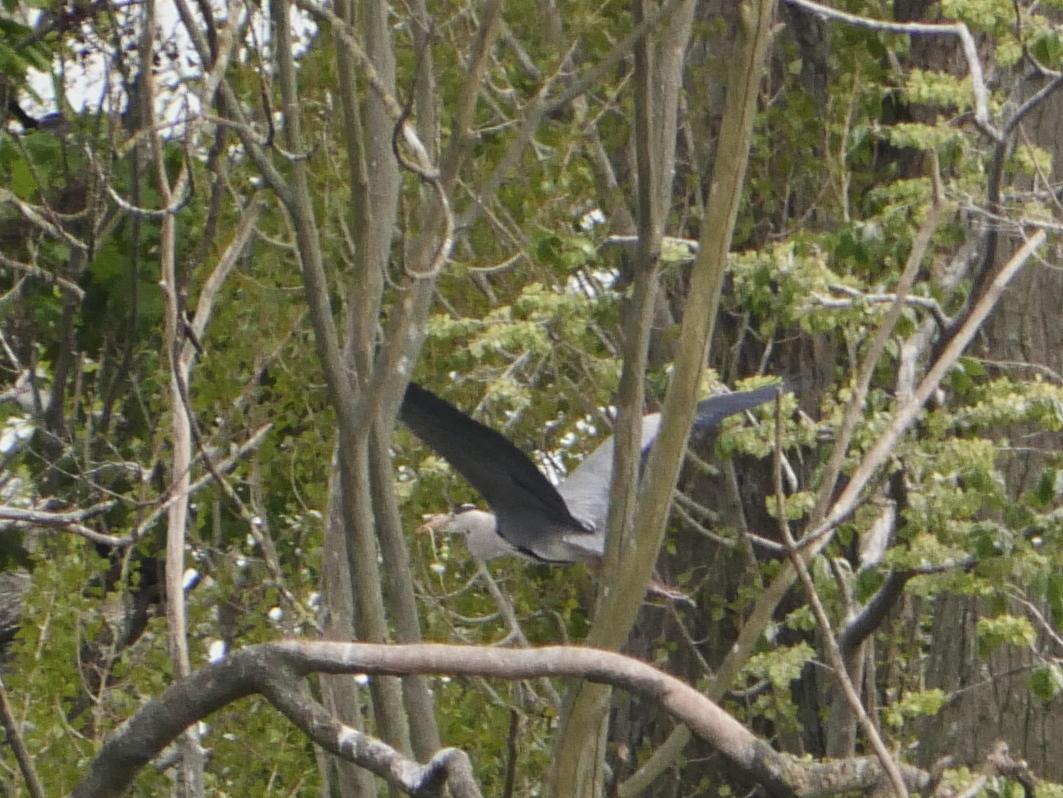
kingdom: Animalia
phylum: Chordata
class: Aves
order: Pelecaniformes
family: Ardeidae
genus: Ardea
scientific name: Ardea cinerea
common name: Grey heron
